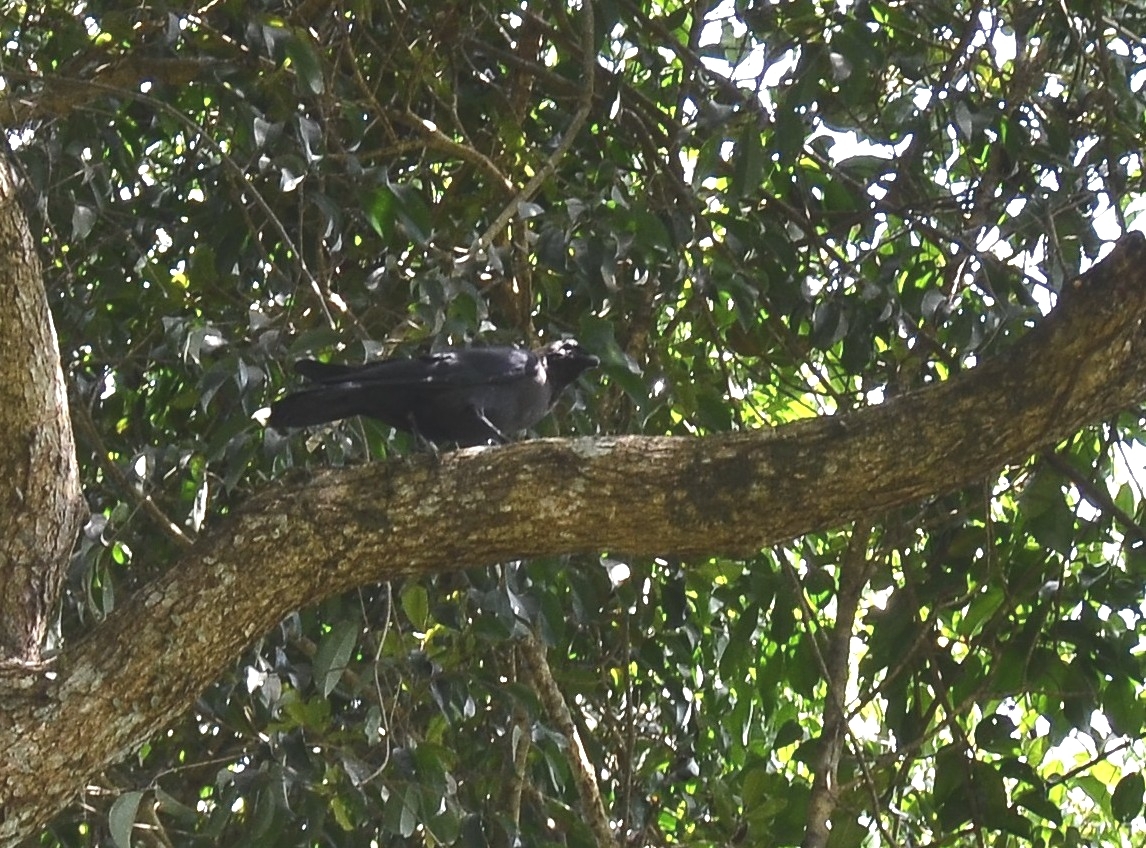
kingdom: Animalia
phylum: Chordata
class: Aves
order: Passeriformes
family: Corvidae
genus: Corvus
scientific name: Corvus splendens
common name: House crow
